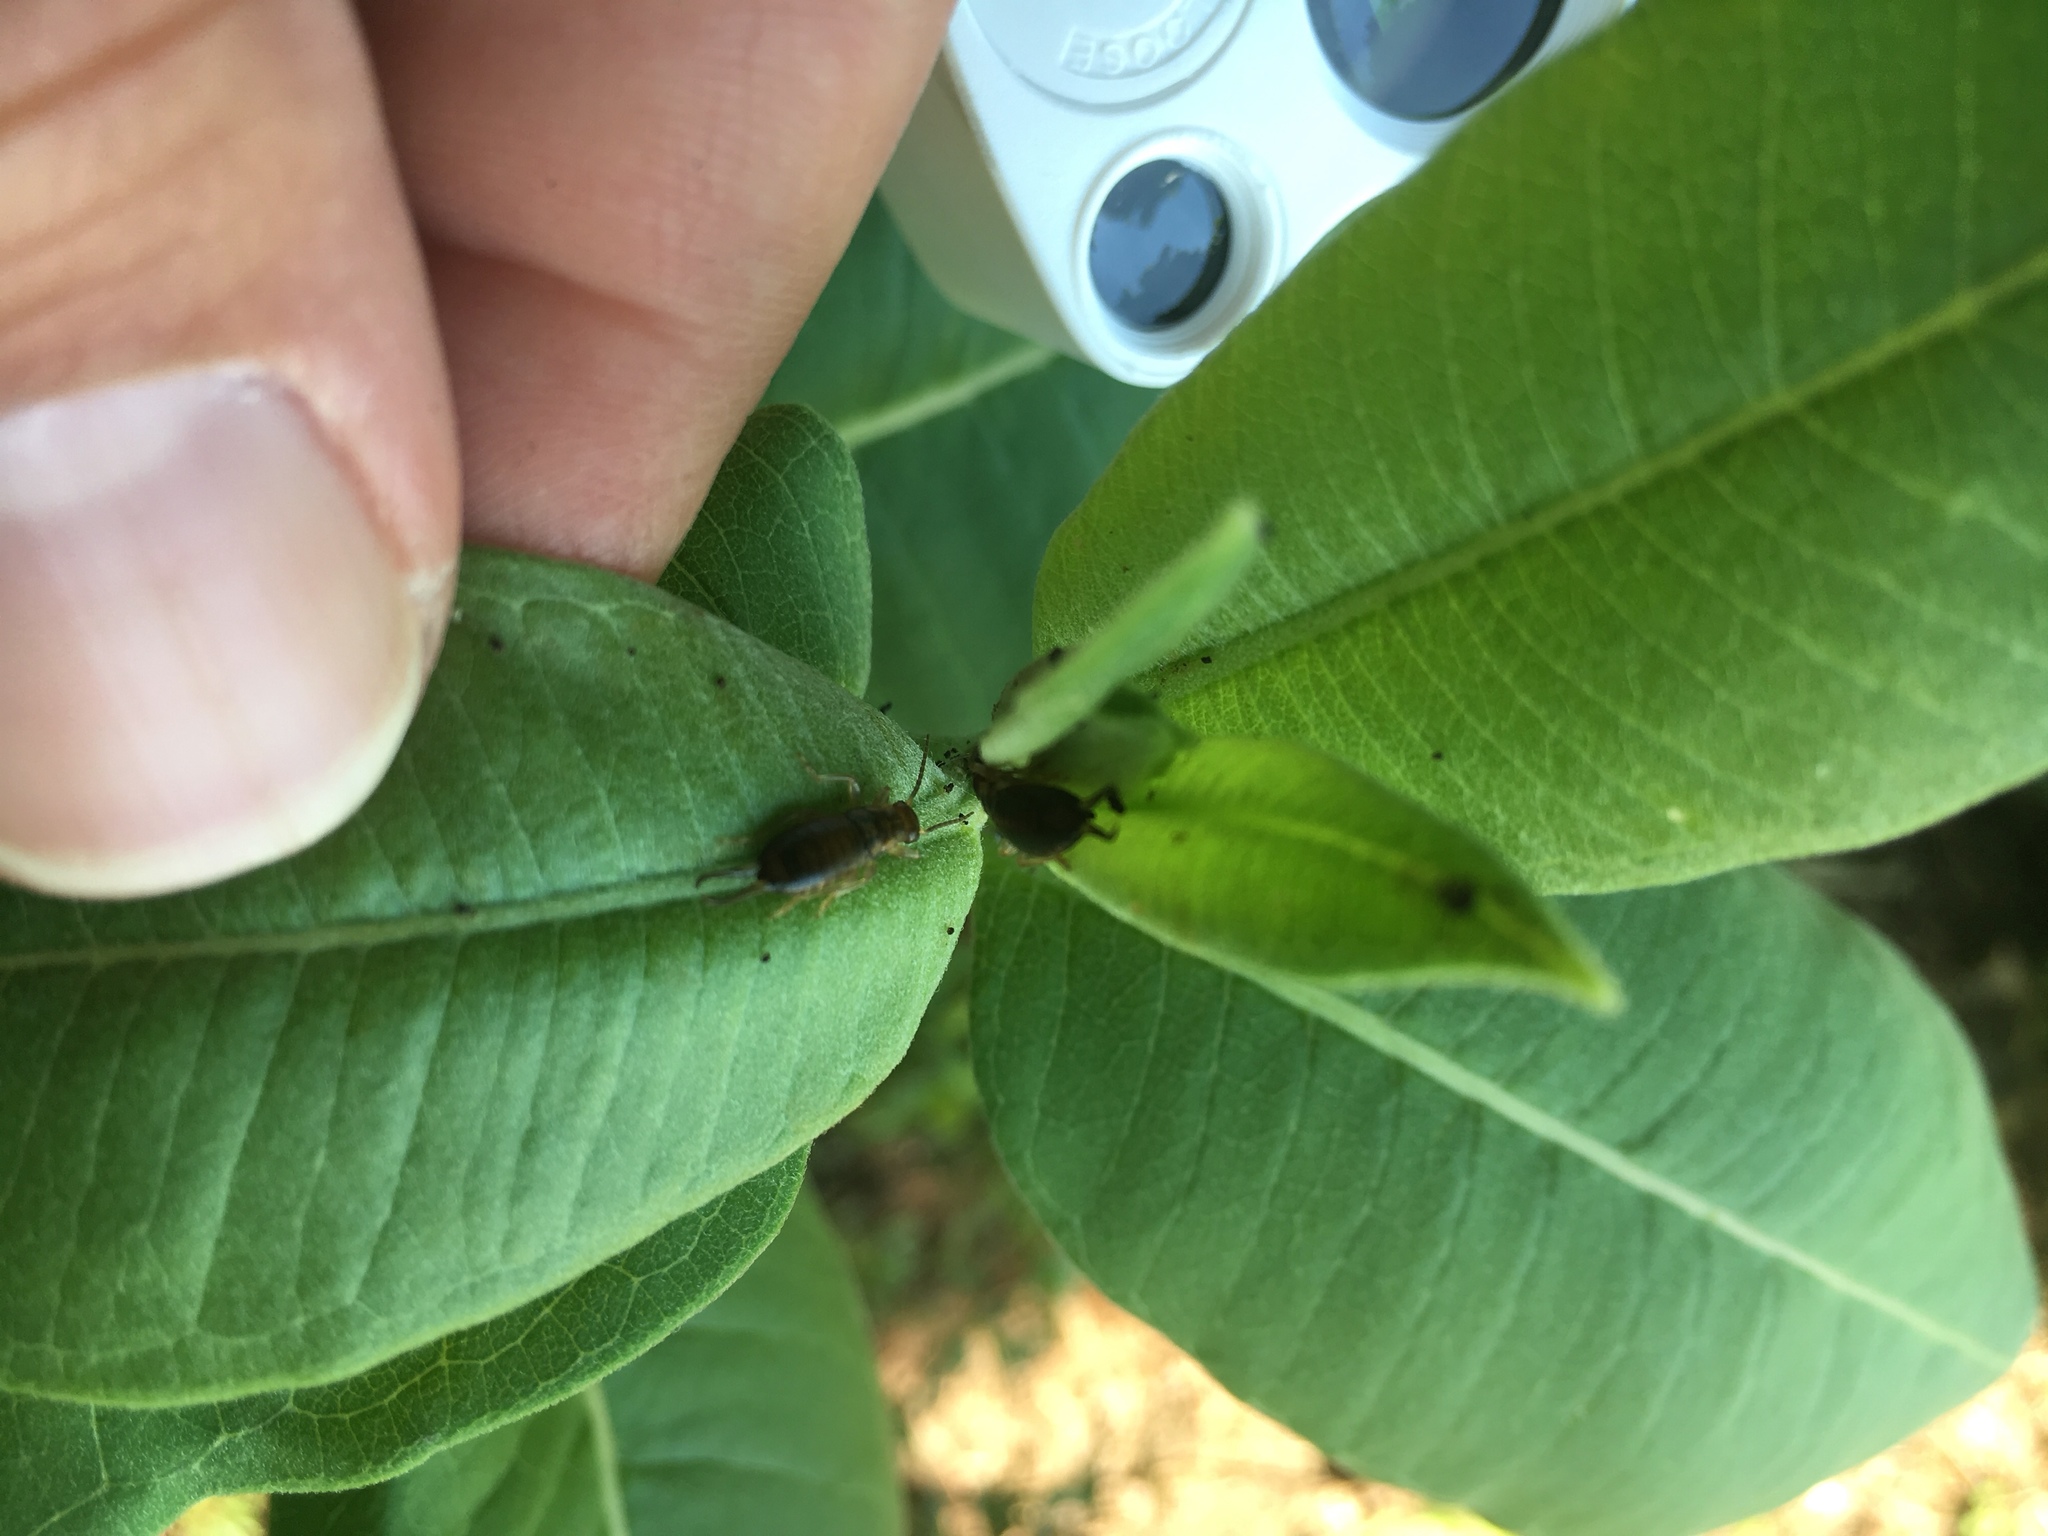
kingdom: Animalia
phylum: Arthropoda
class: Insecta
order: Dermaptera
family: Forficulidae
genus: Forficula
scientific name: Forficula
